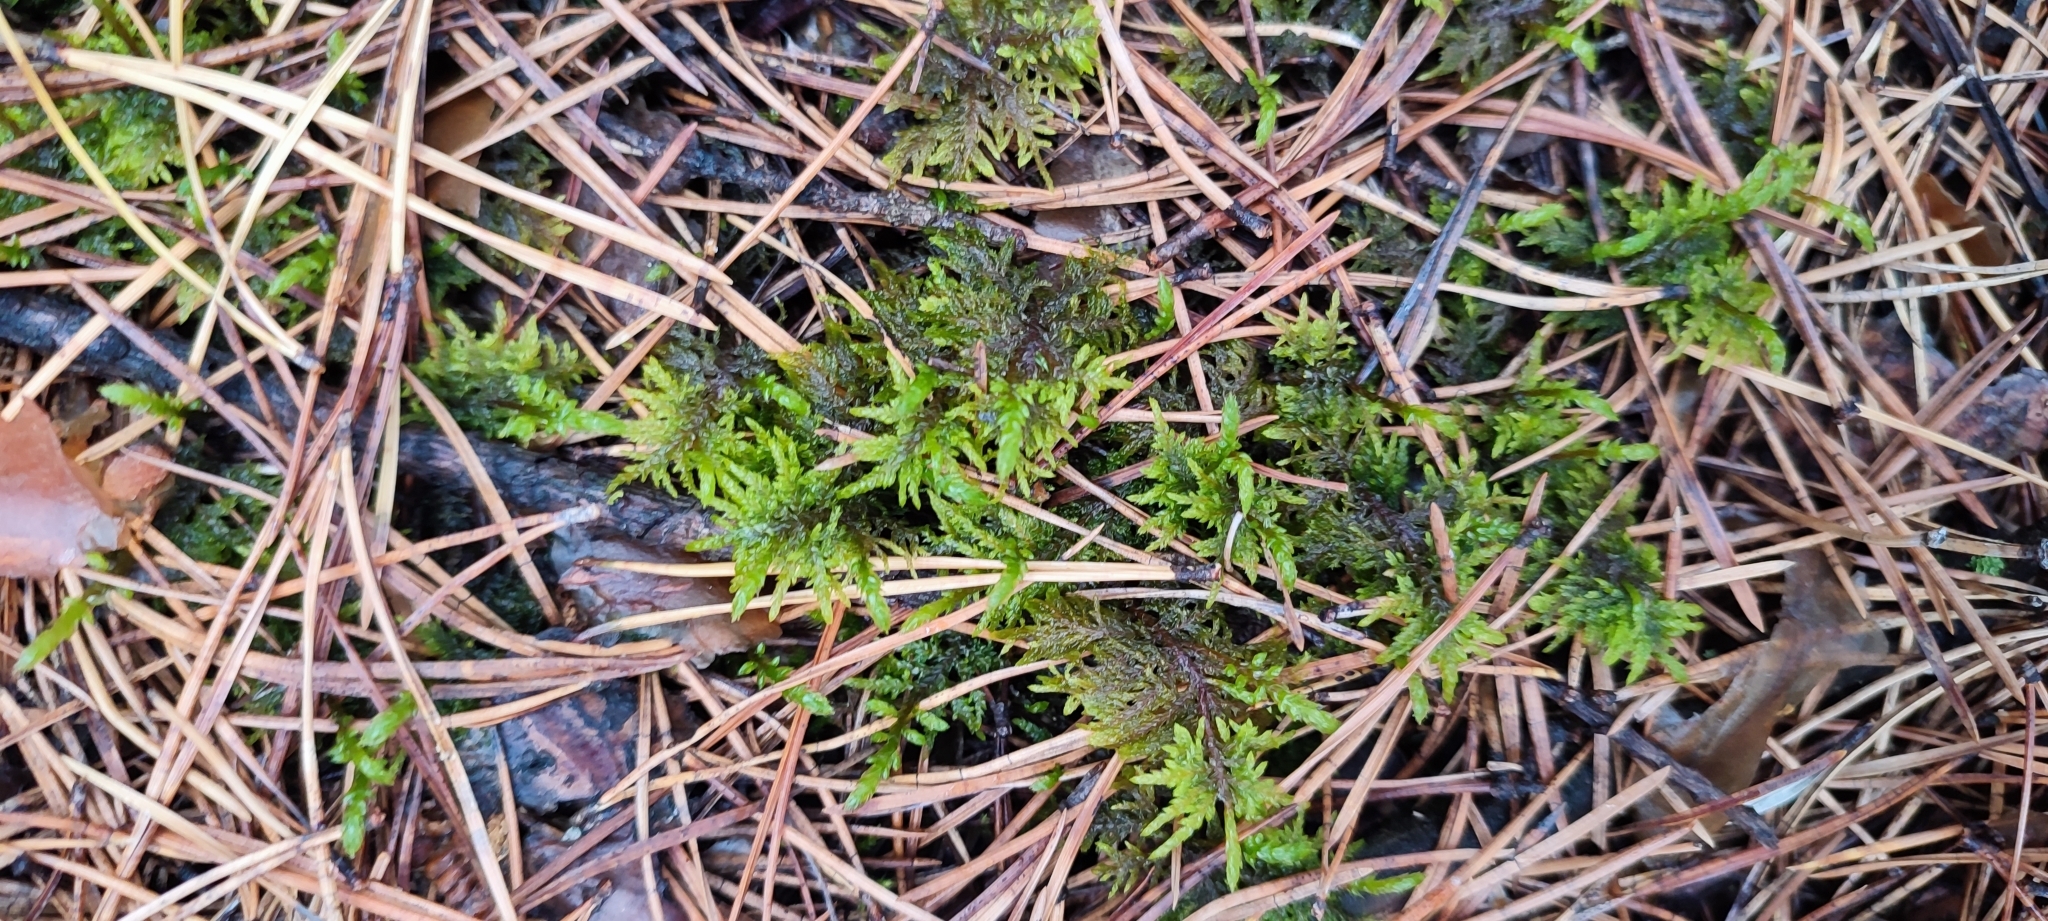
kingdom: Plantae
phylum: Bryophyta
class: Bryopsida
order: Hypnales
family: Hylocomiaceae
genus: Pleurozium
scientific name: Pleurozium schreberi
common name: Red-stemmed feather moss
